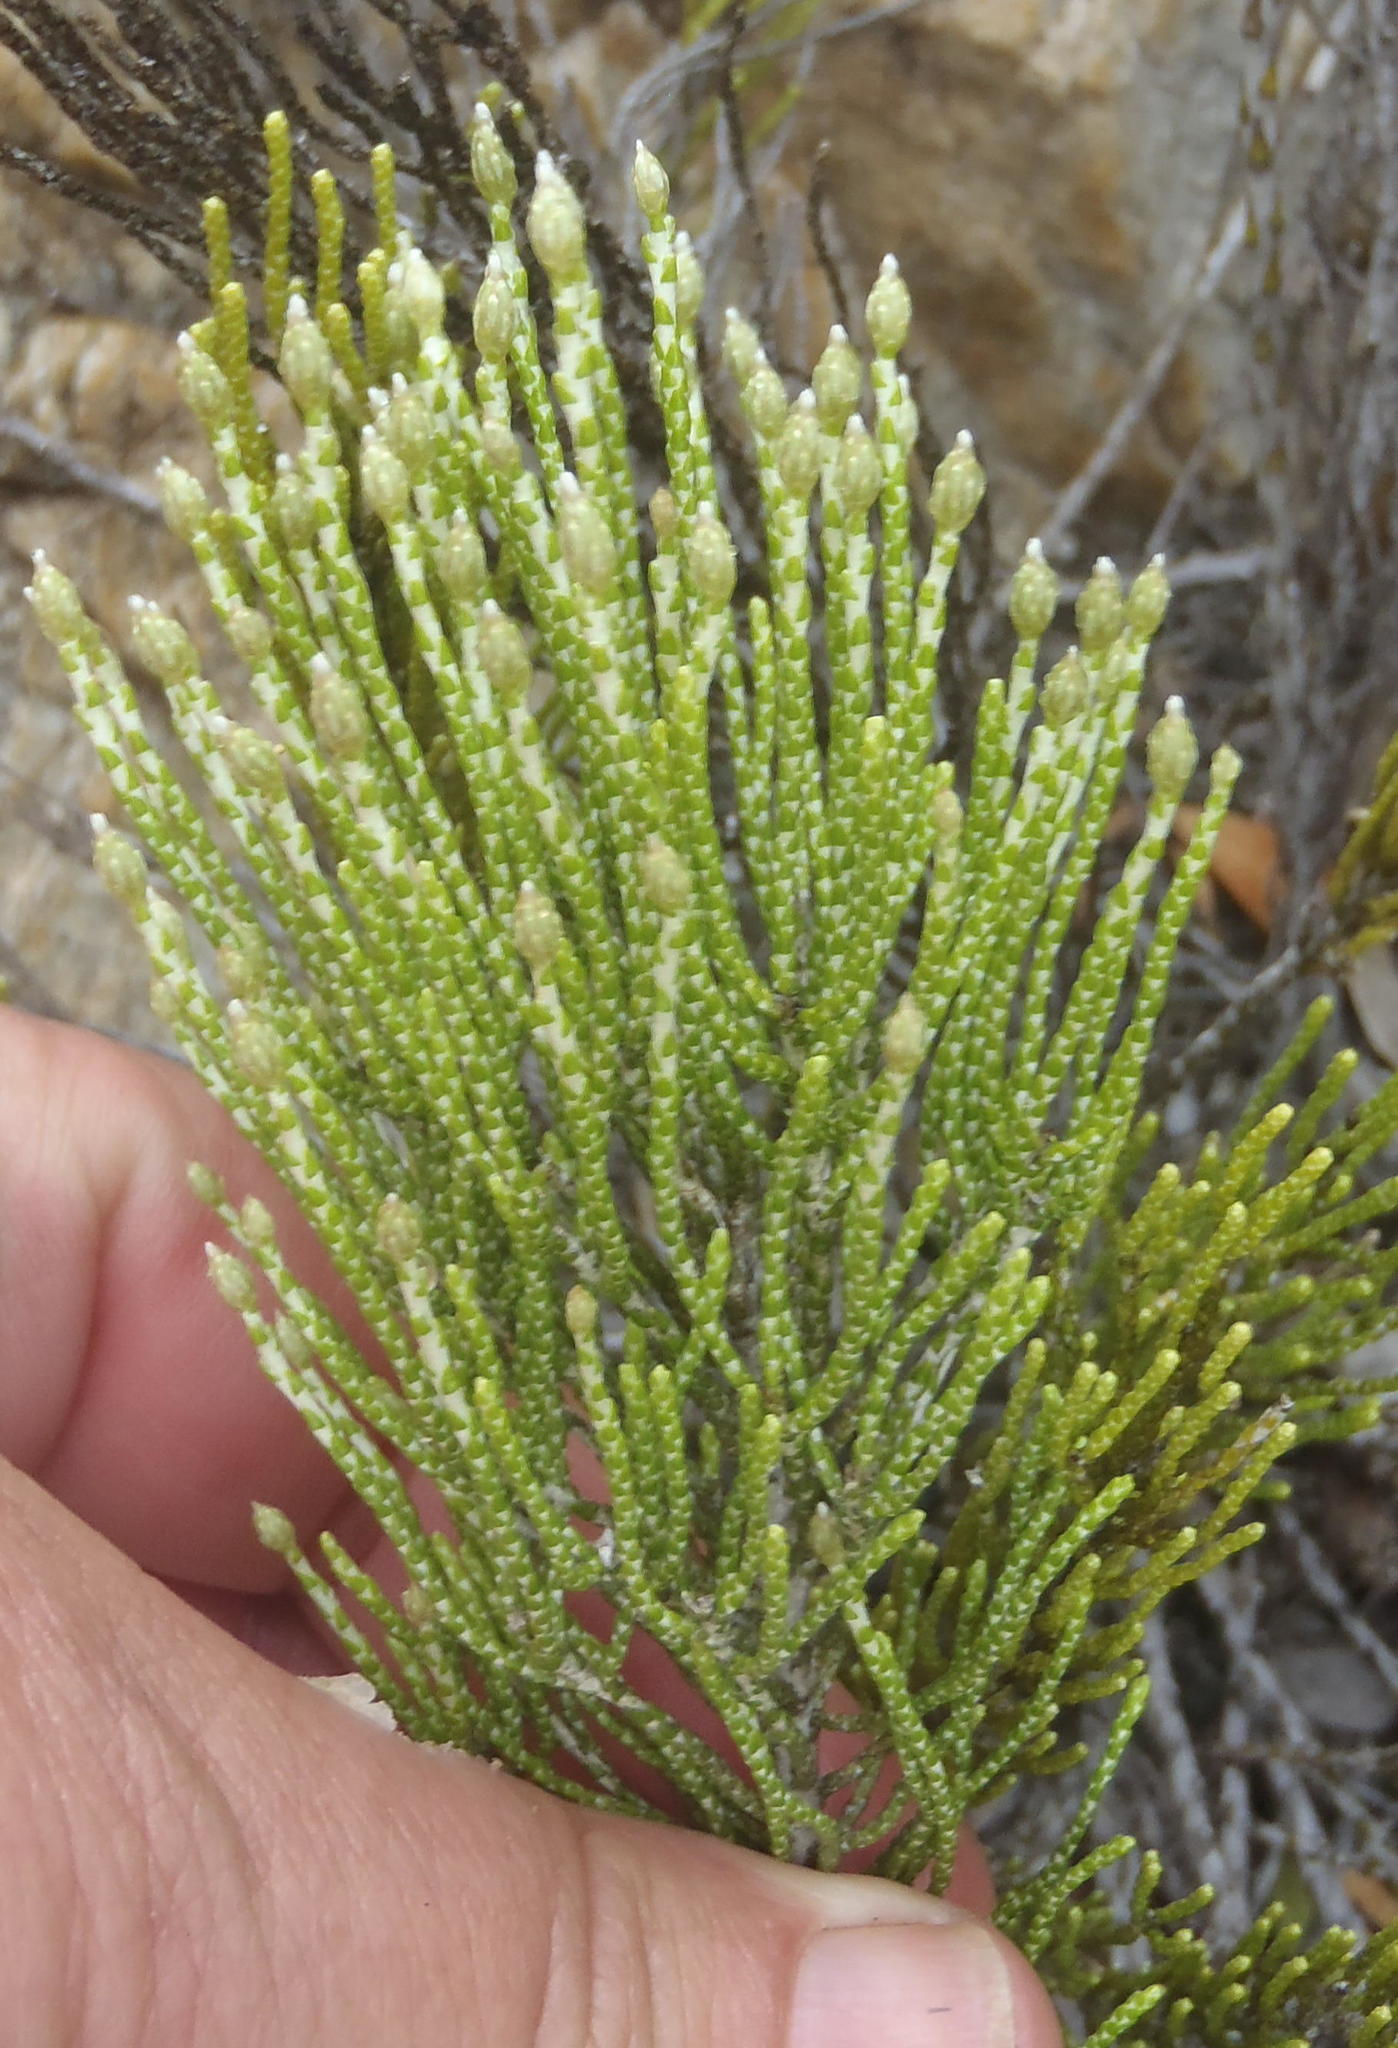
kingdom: Plantae
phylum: Tracheophyta
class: Magnoliopsida
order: Asterales
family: Asteraceae
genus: Dolichothrix
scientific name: Dolichothrix ericoides
